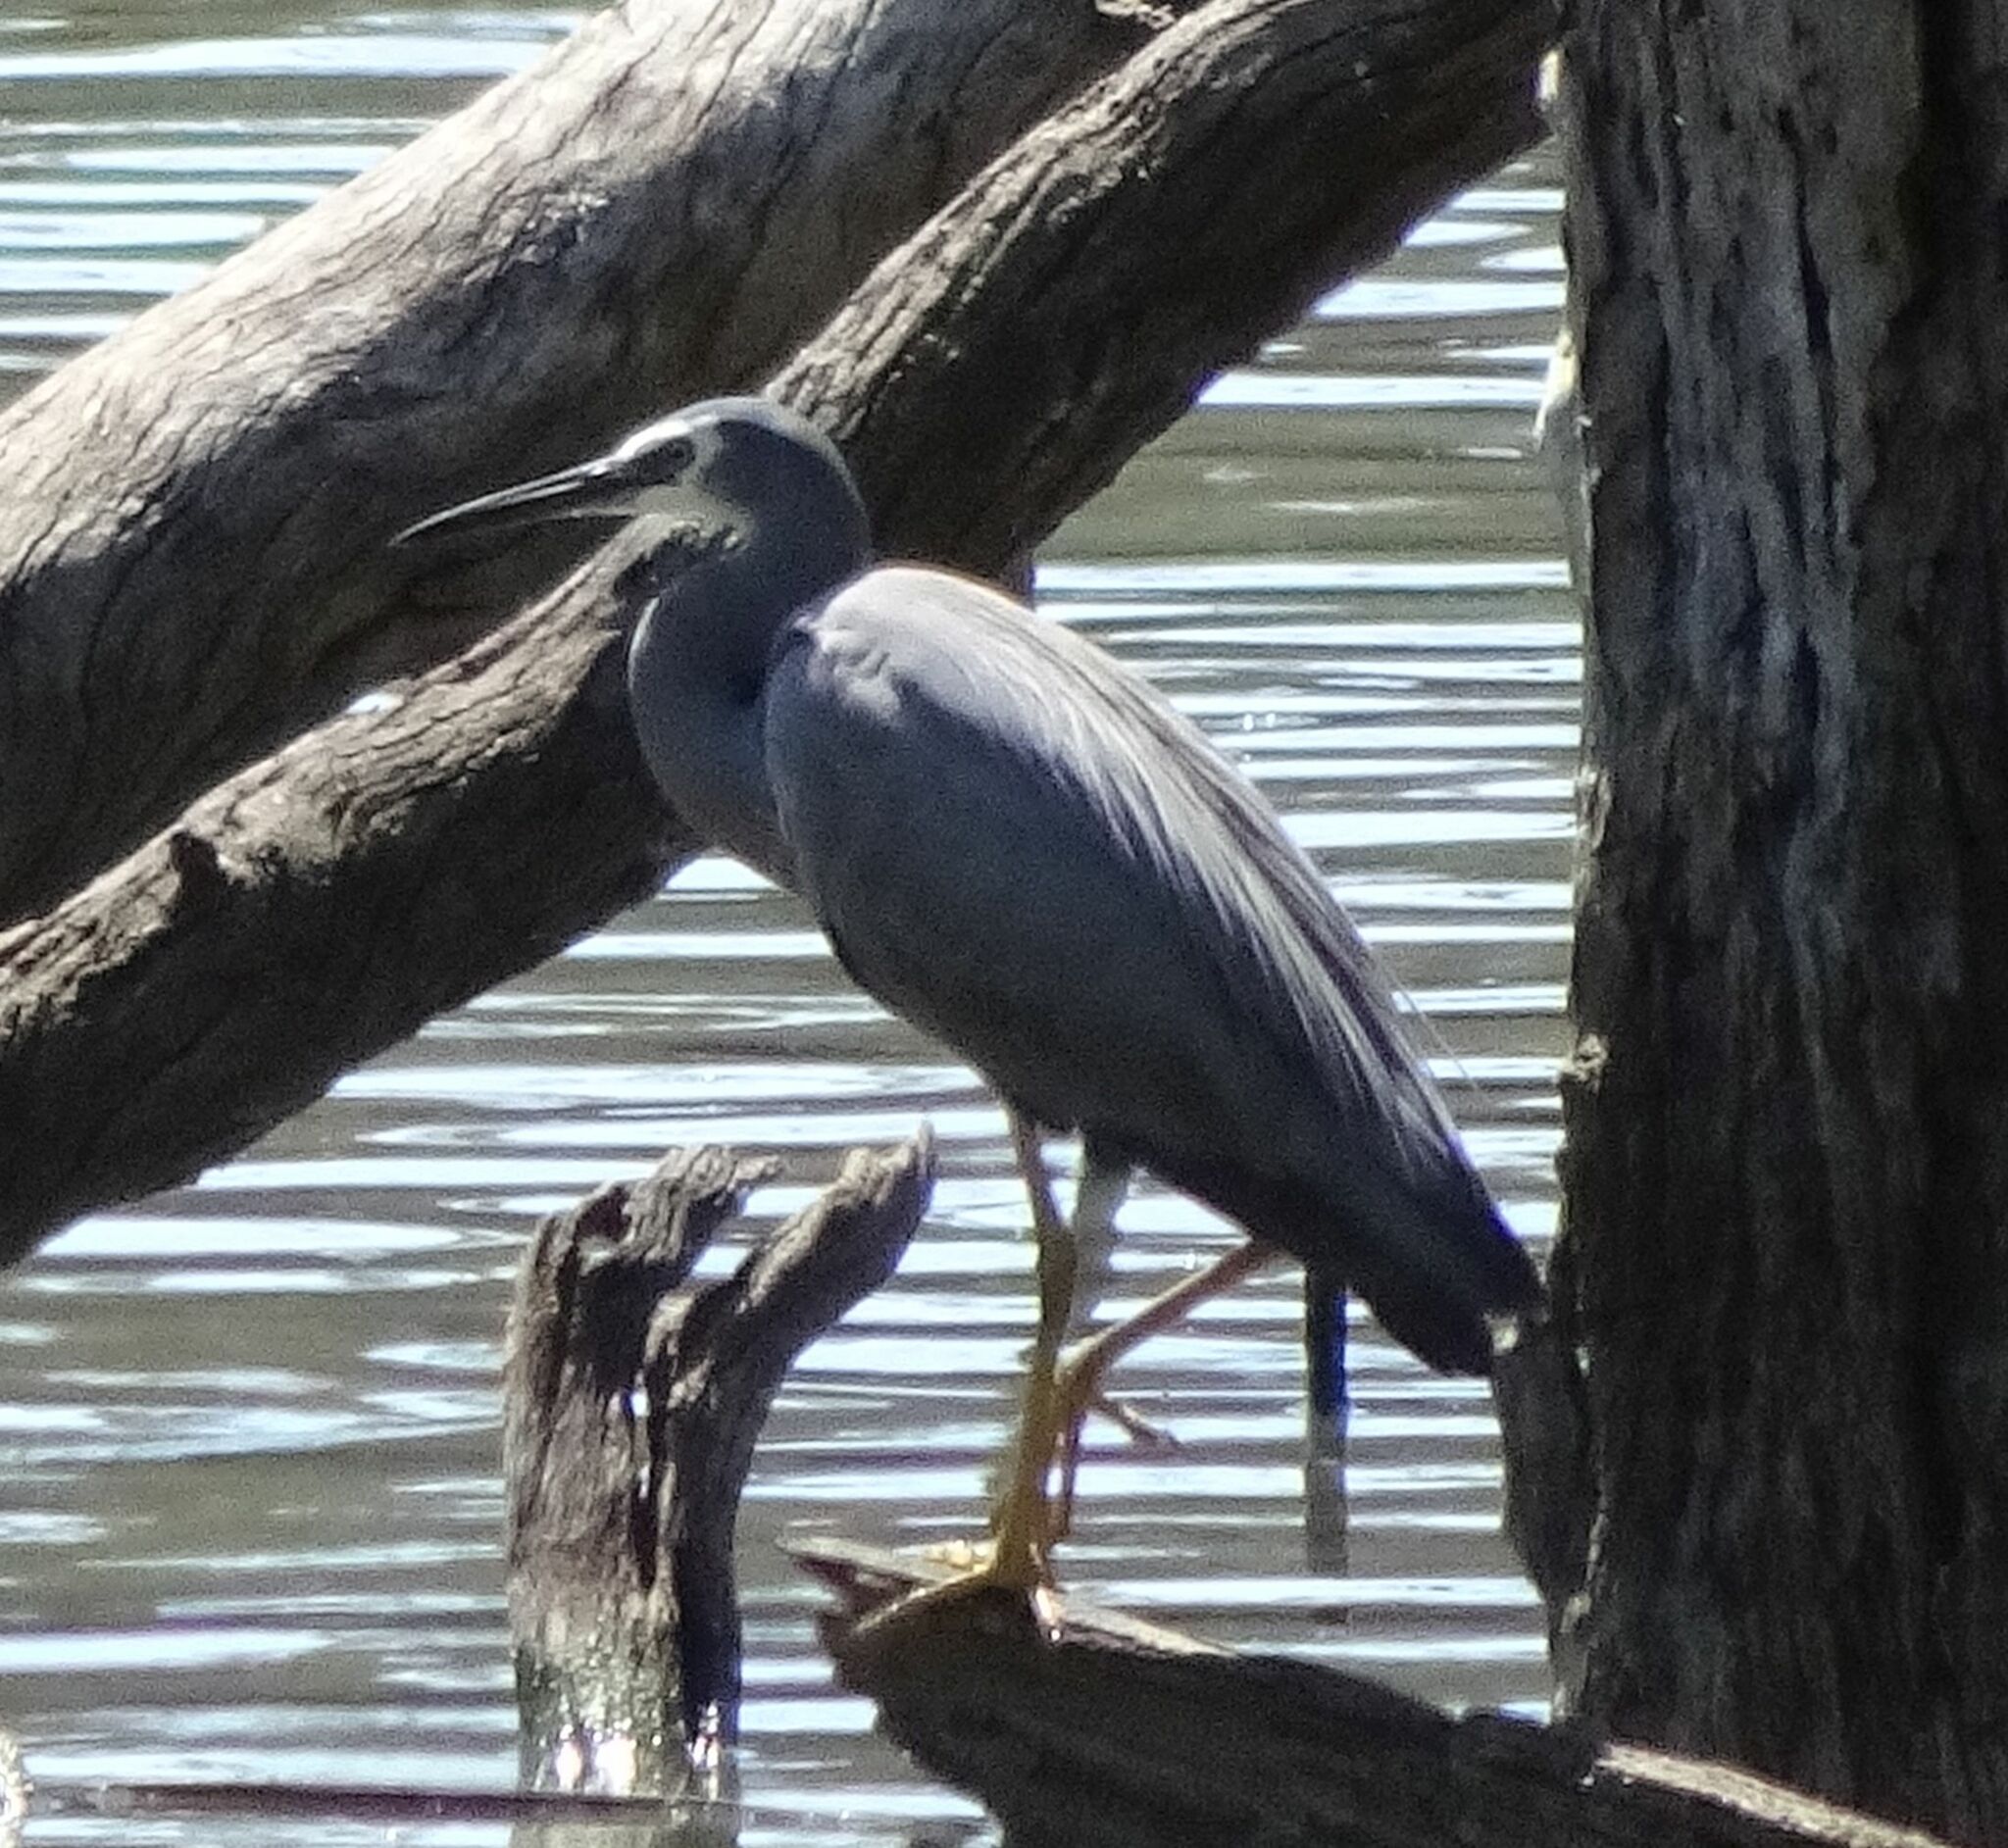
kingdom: Animalia
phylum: Chordata
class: Aves
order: Pelecaniformes
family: Ardeidae
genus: Egretta
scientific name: Egretta novaehollandiae
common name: White-faced heron
